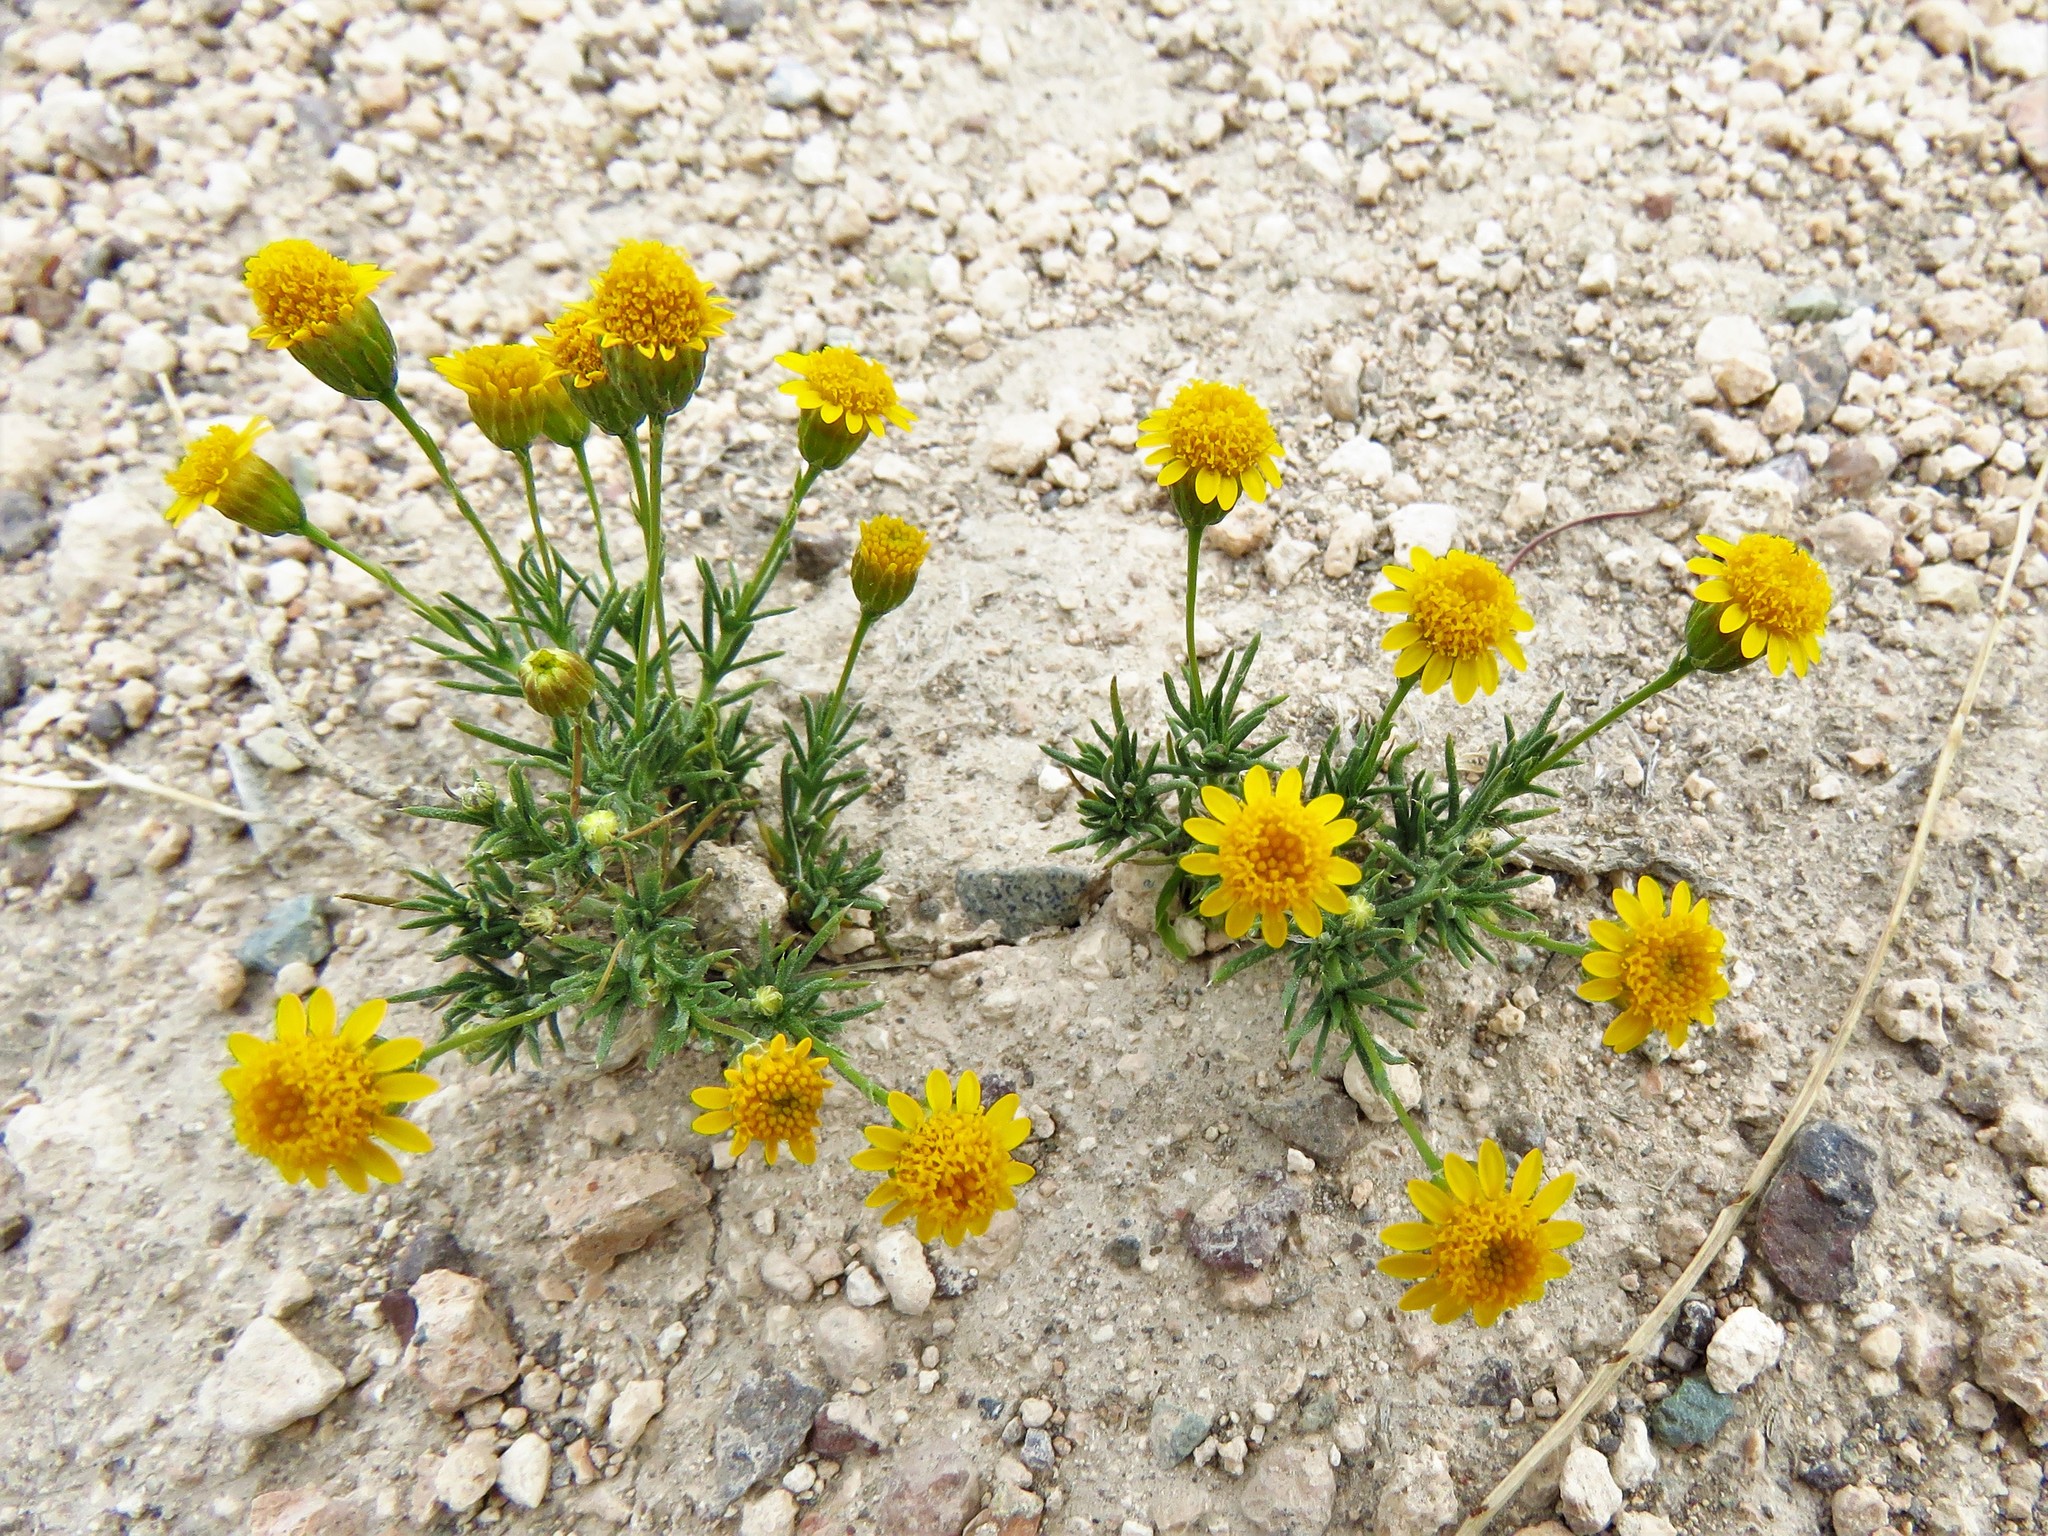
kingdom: Plantae
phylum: Tracheophyta
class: Magnoliopsida
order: Asterales
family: Asteraceae
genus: Thymophylla
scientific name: Thymophylla pentachaeta
